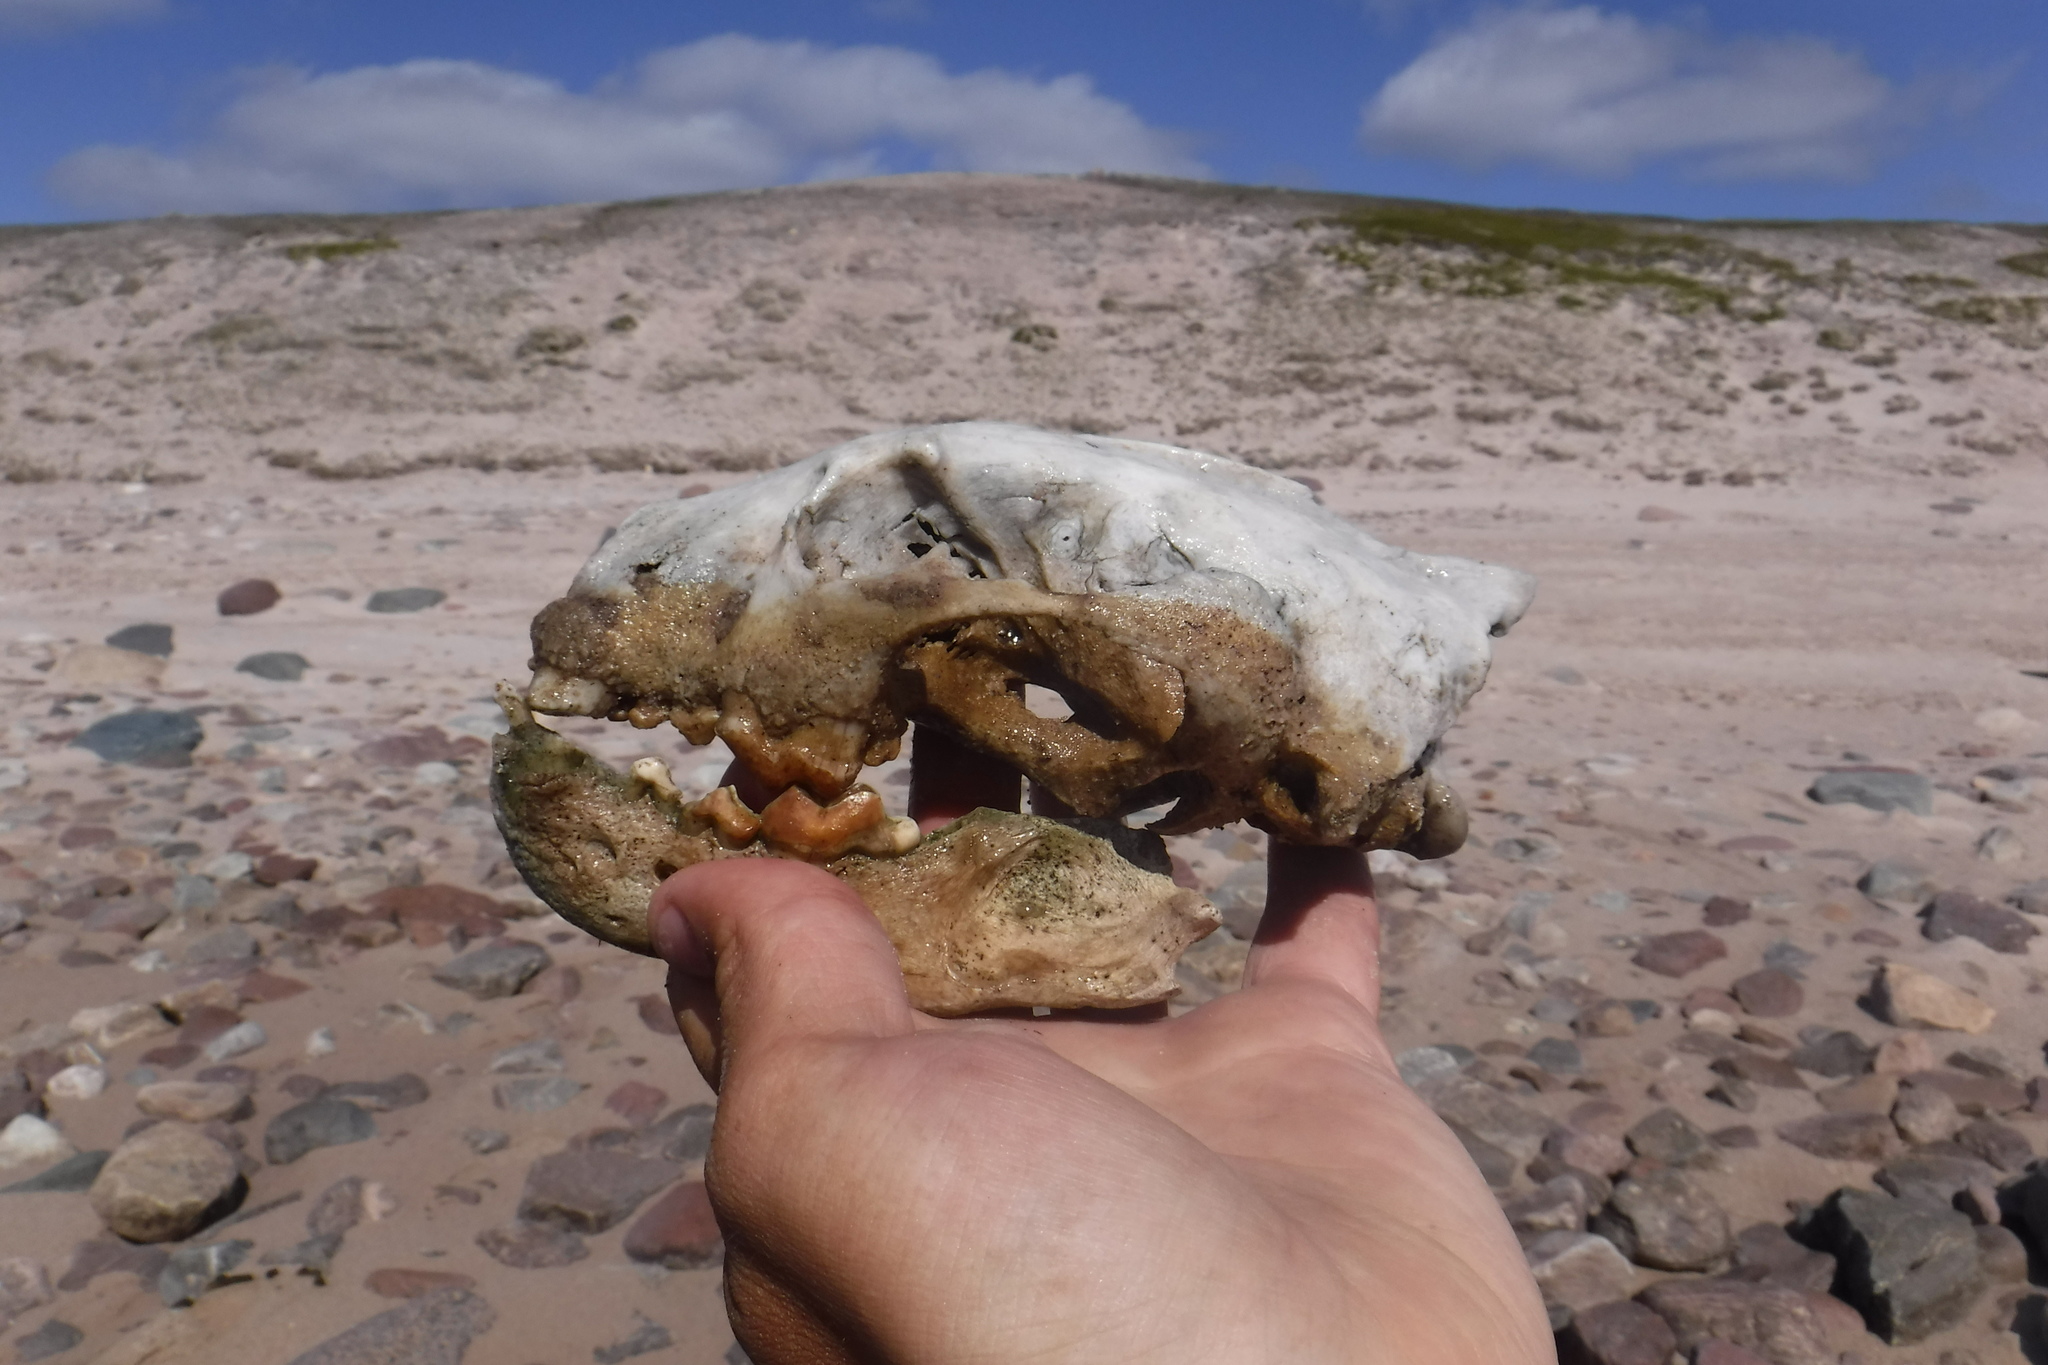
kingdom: Animalia
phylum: Chordata
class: Mammalia
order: Carnivora
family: Mustelidae
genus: Gulo
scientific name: Gulo gulo
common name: Wolverine
